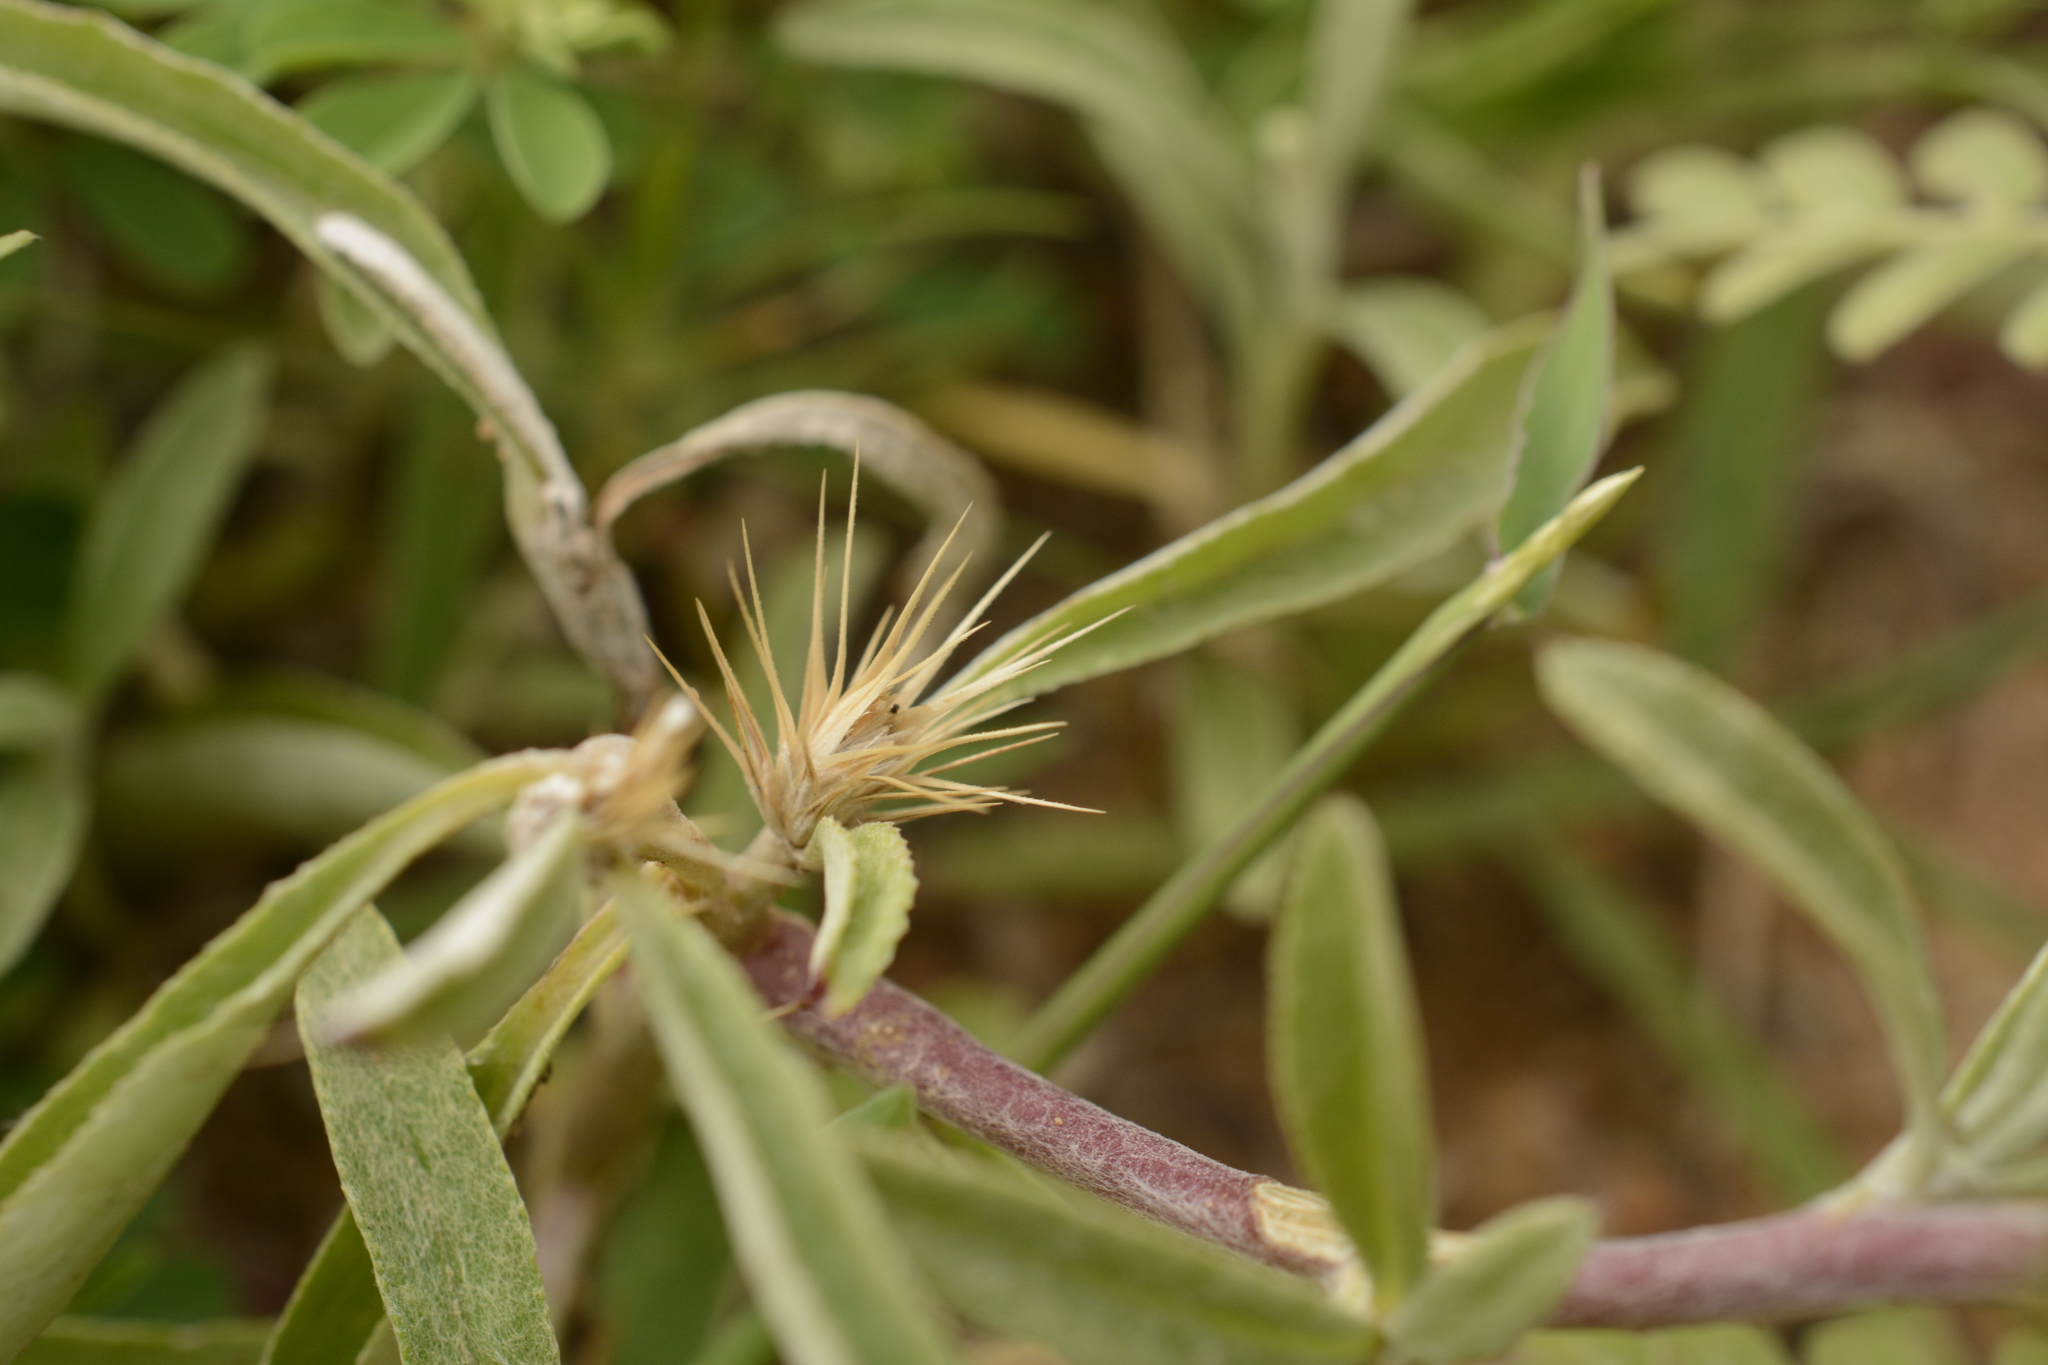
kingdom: Plantae
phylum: Tracheophyta
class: Magnoliopsida
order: Asterales
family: Asteraceae
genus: Dicoma
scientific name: Dicoma tomentosa
